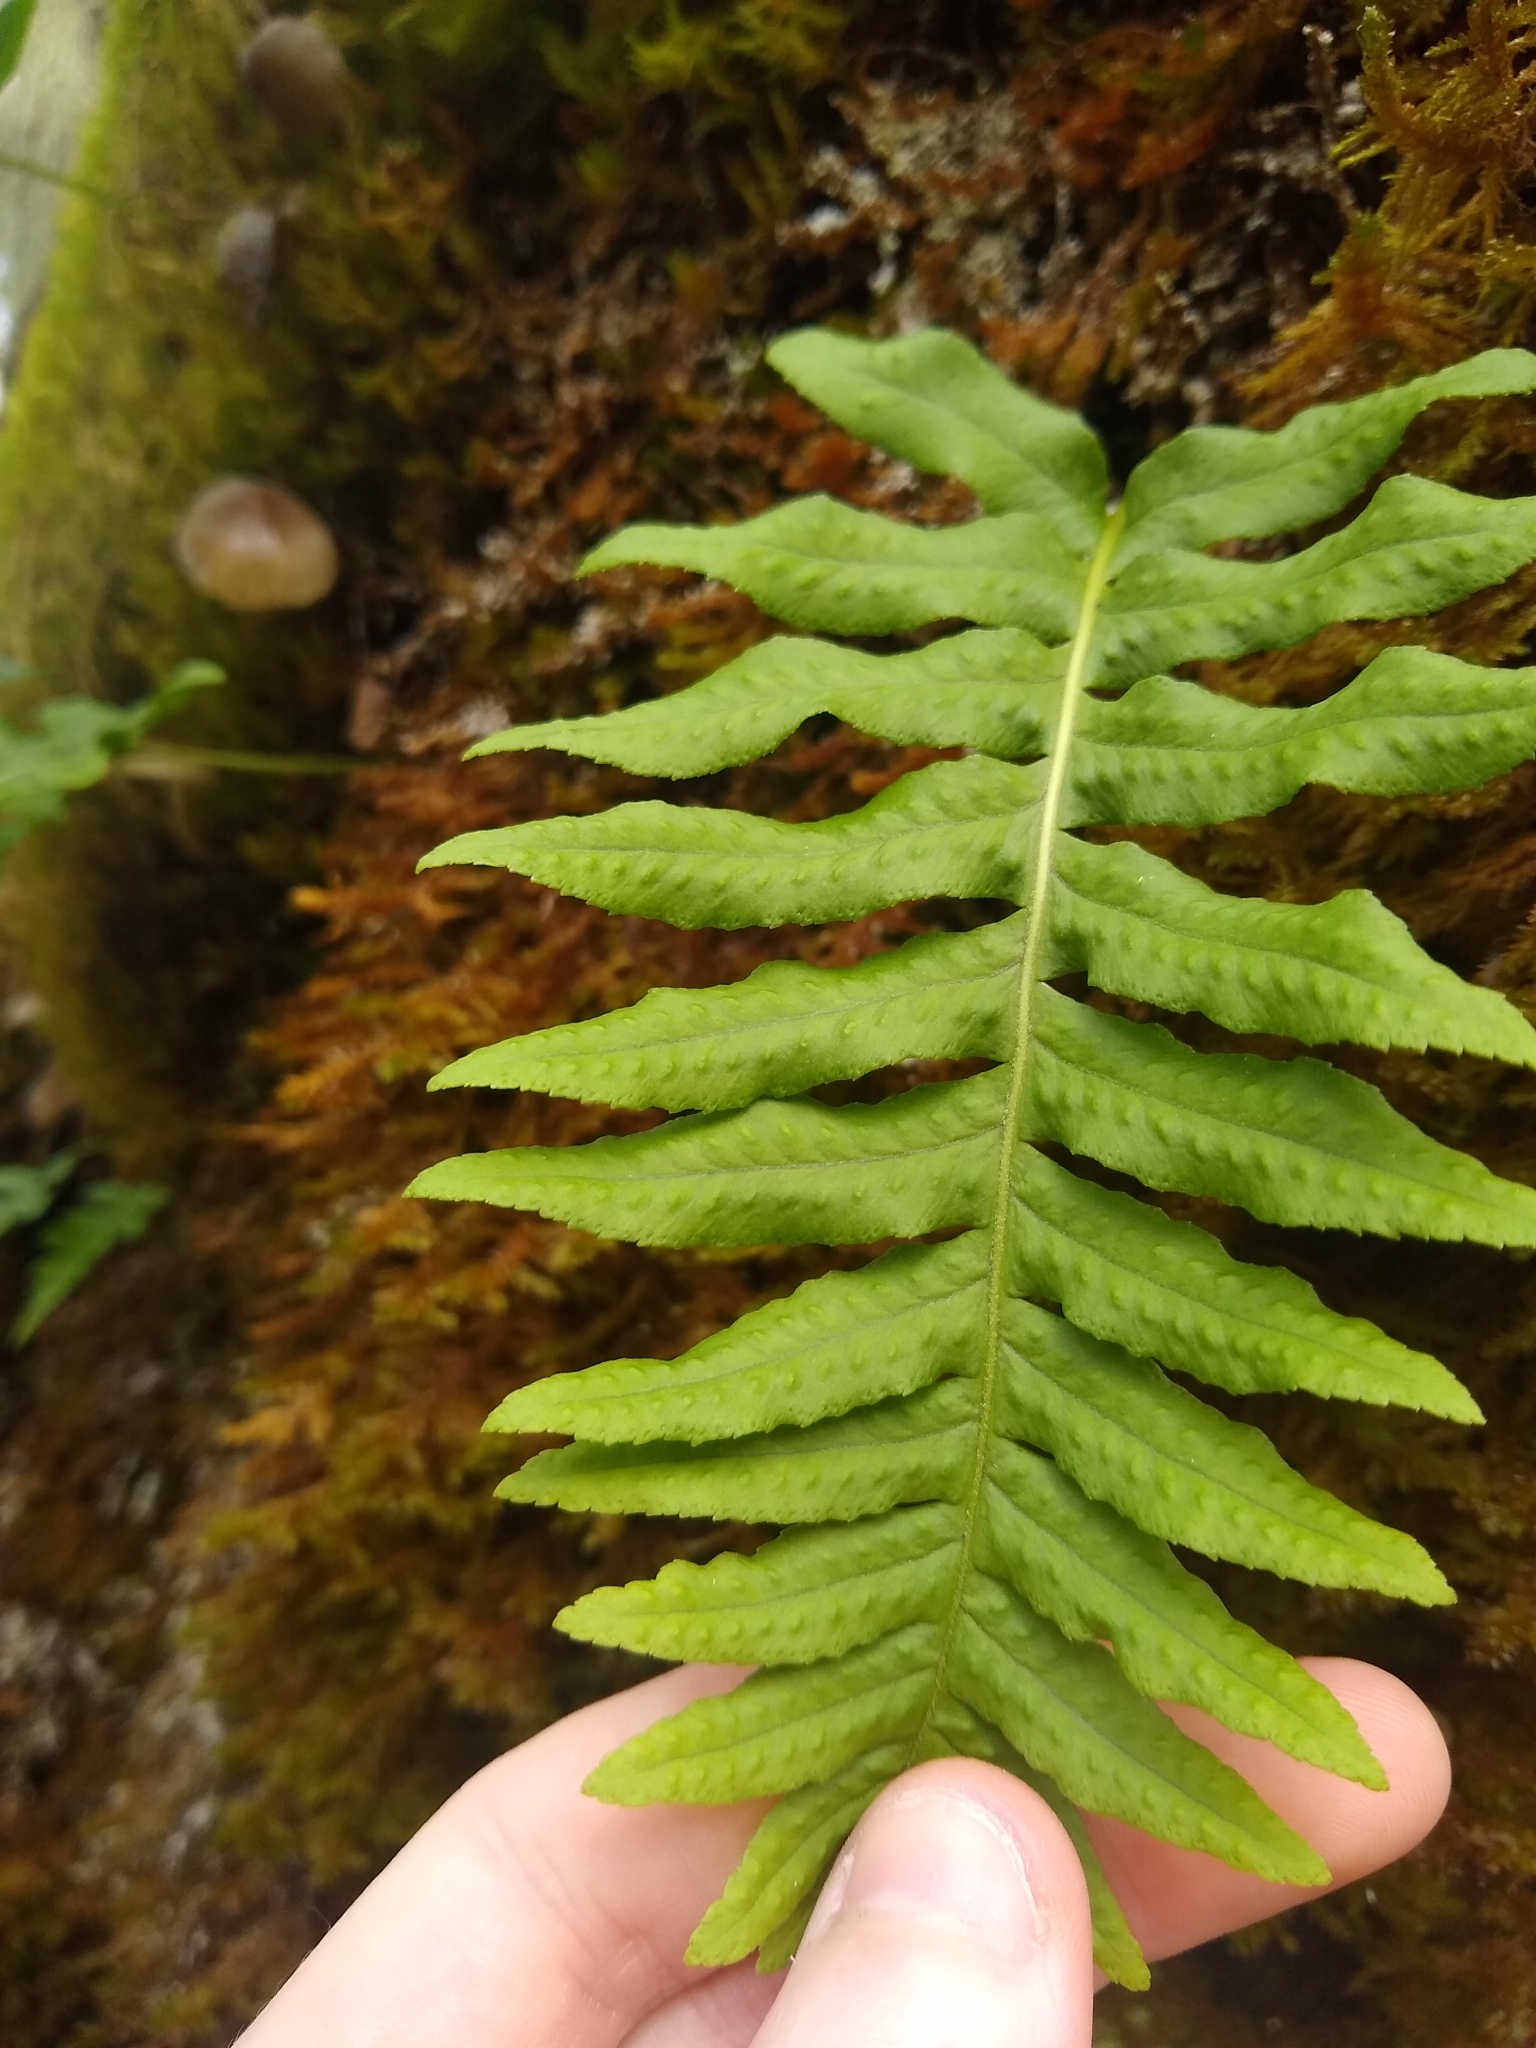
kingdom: Plantae
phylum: Tracheophyta
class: Polypodiopsida
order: Polypodiales
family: Polypodiaceae
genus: Polypodium
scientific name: Polypodium glycyrrhiza
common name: Licorice fern
